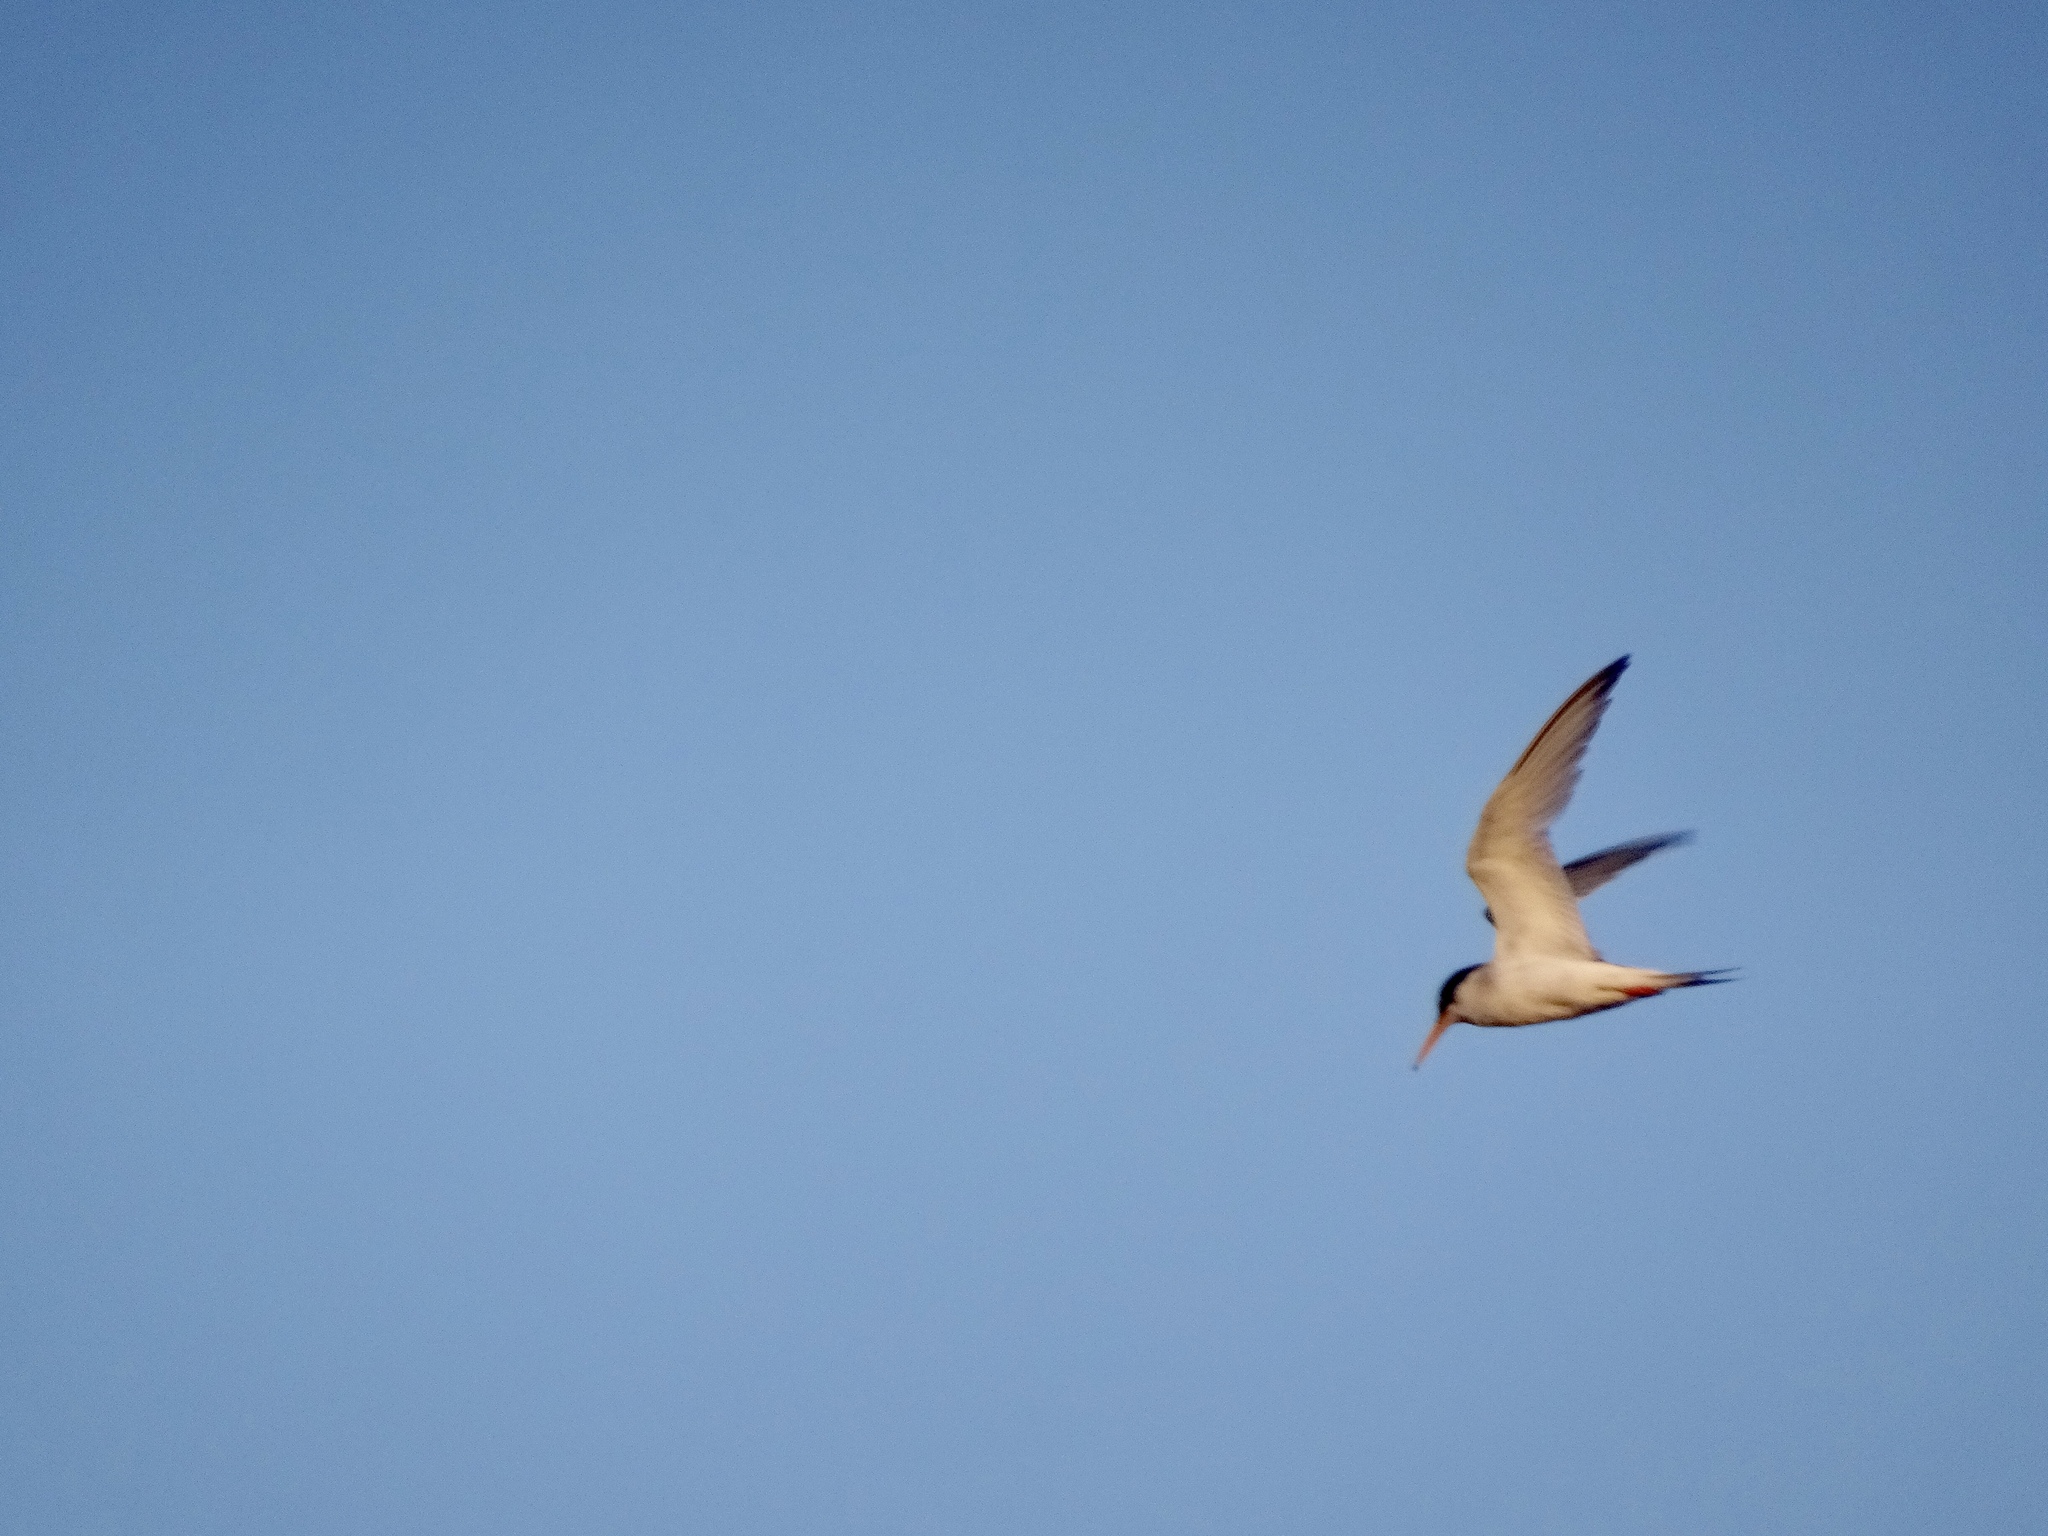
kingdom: Animalia
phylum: Chordata
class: Aves
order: Charadriiformes
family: Laridae
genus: Sternula
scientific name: Sternula albifrons
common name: Little tern
